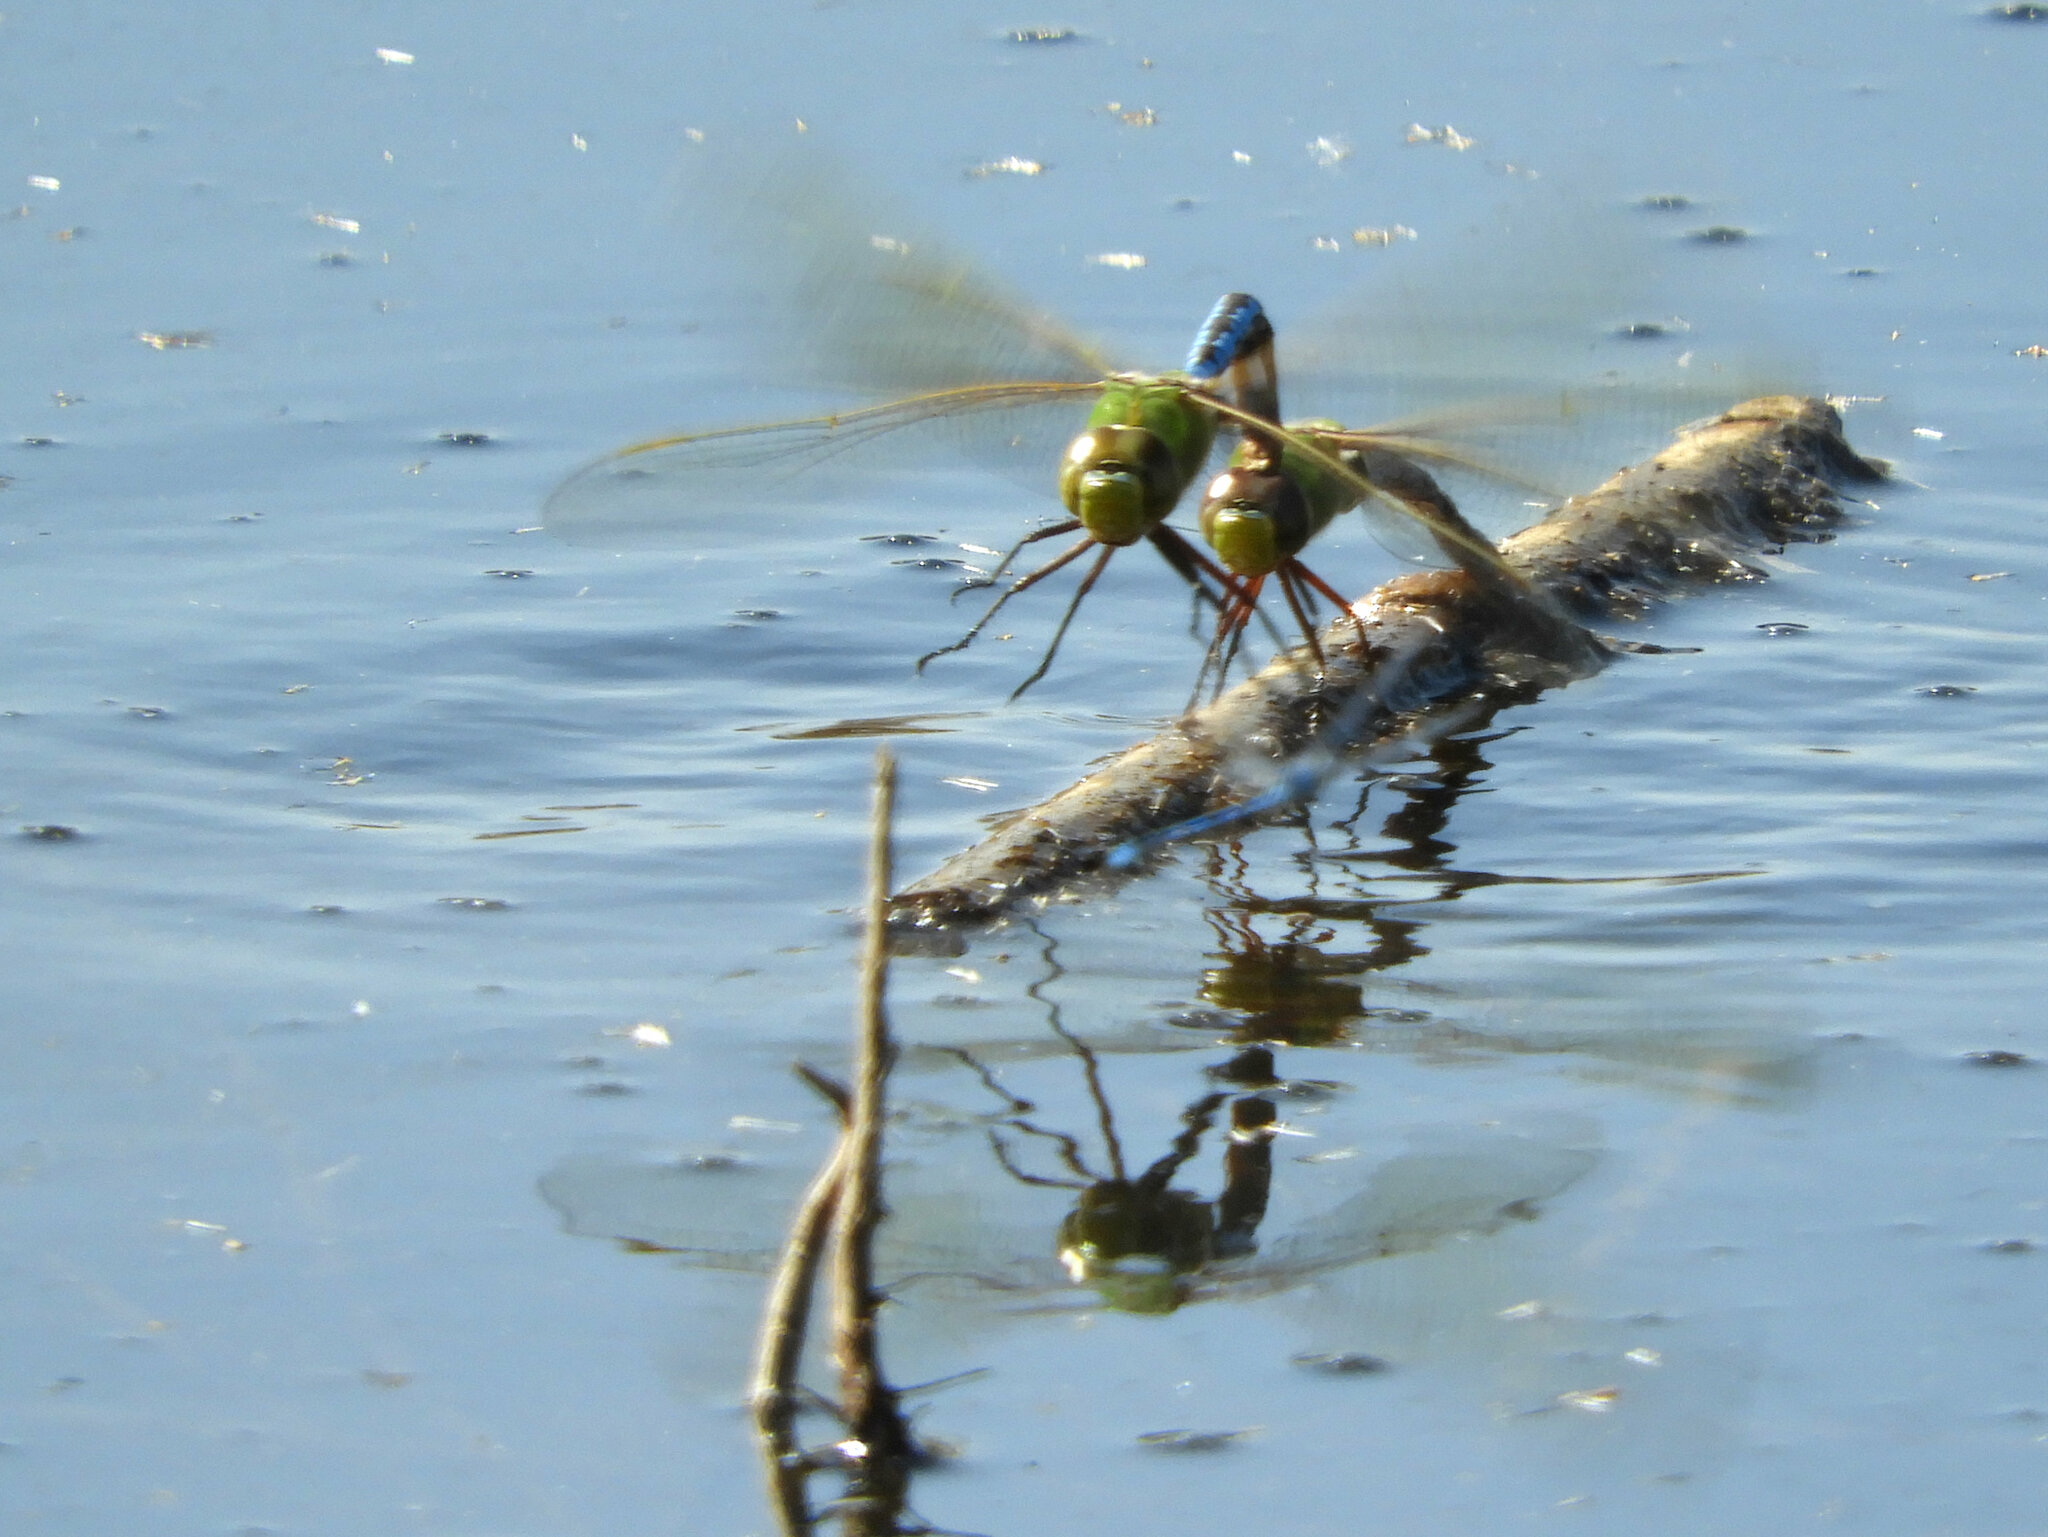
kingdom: Animalia
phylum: Arthropoda
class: Insecta
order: Odonata
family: Aeshnidae
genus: Anax
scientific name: Anax junius
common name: Common green darner
